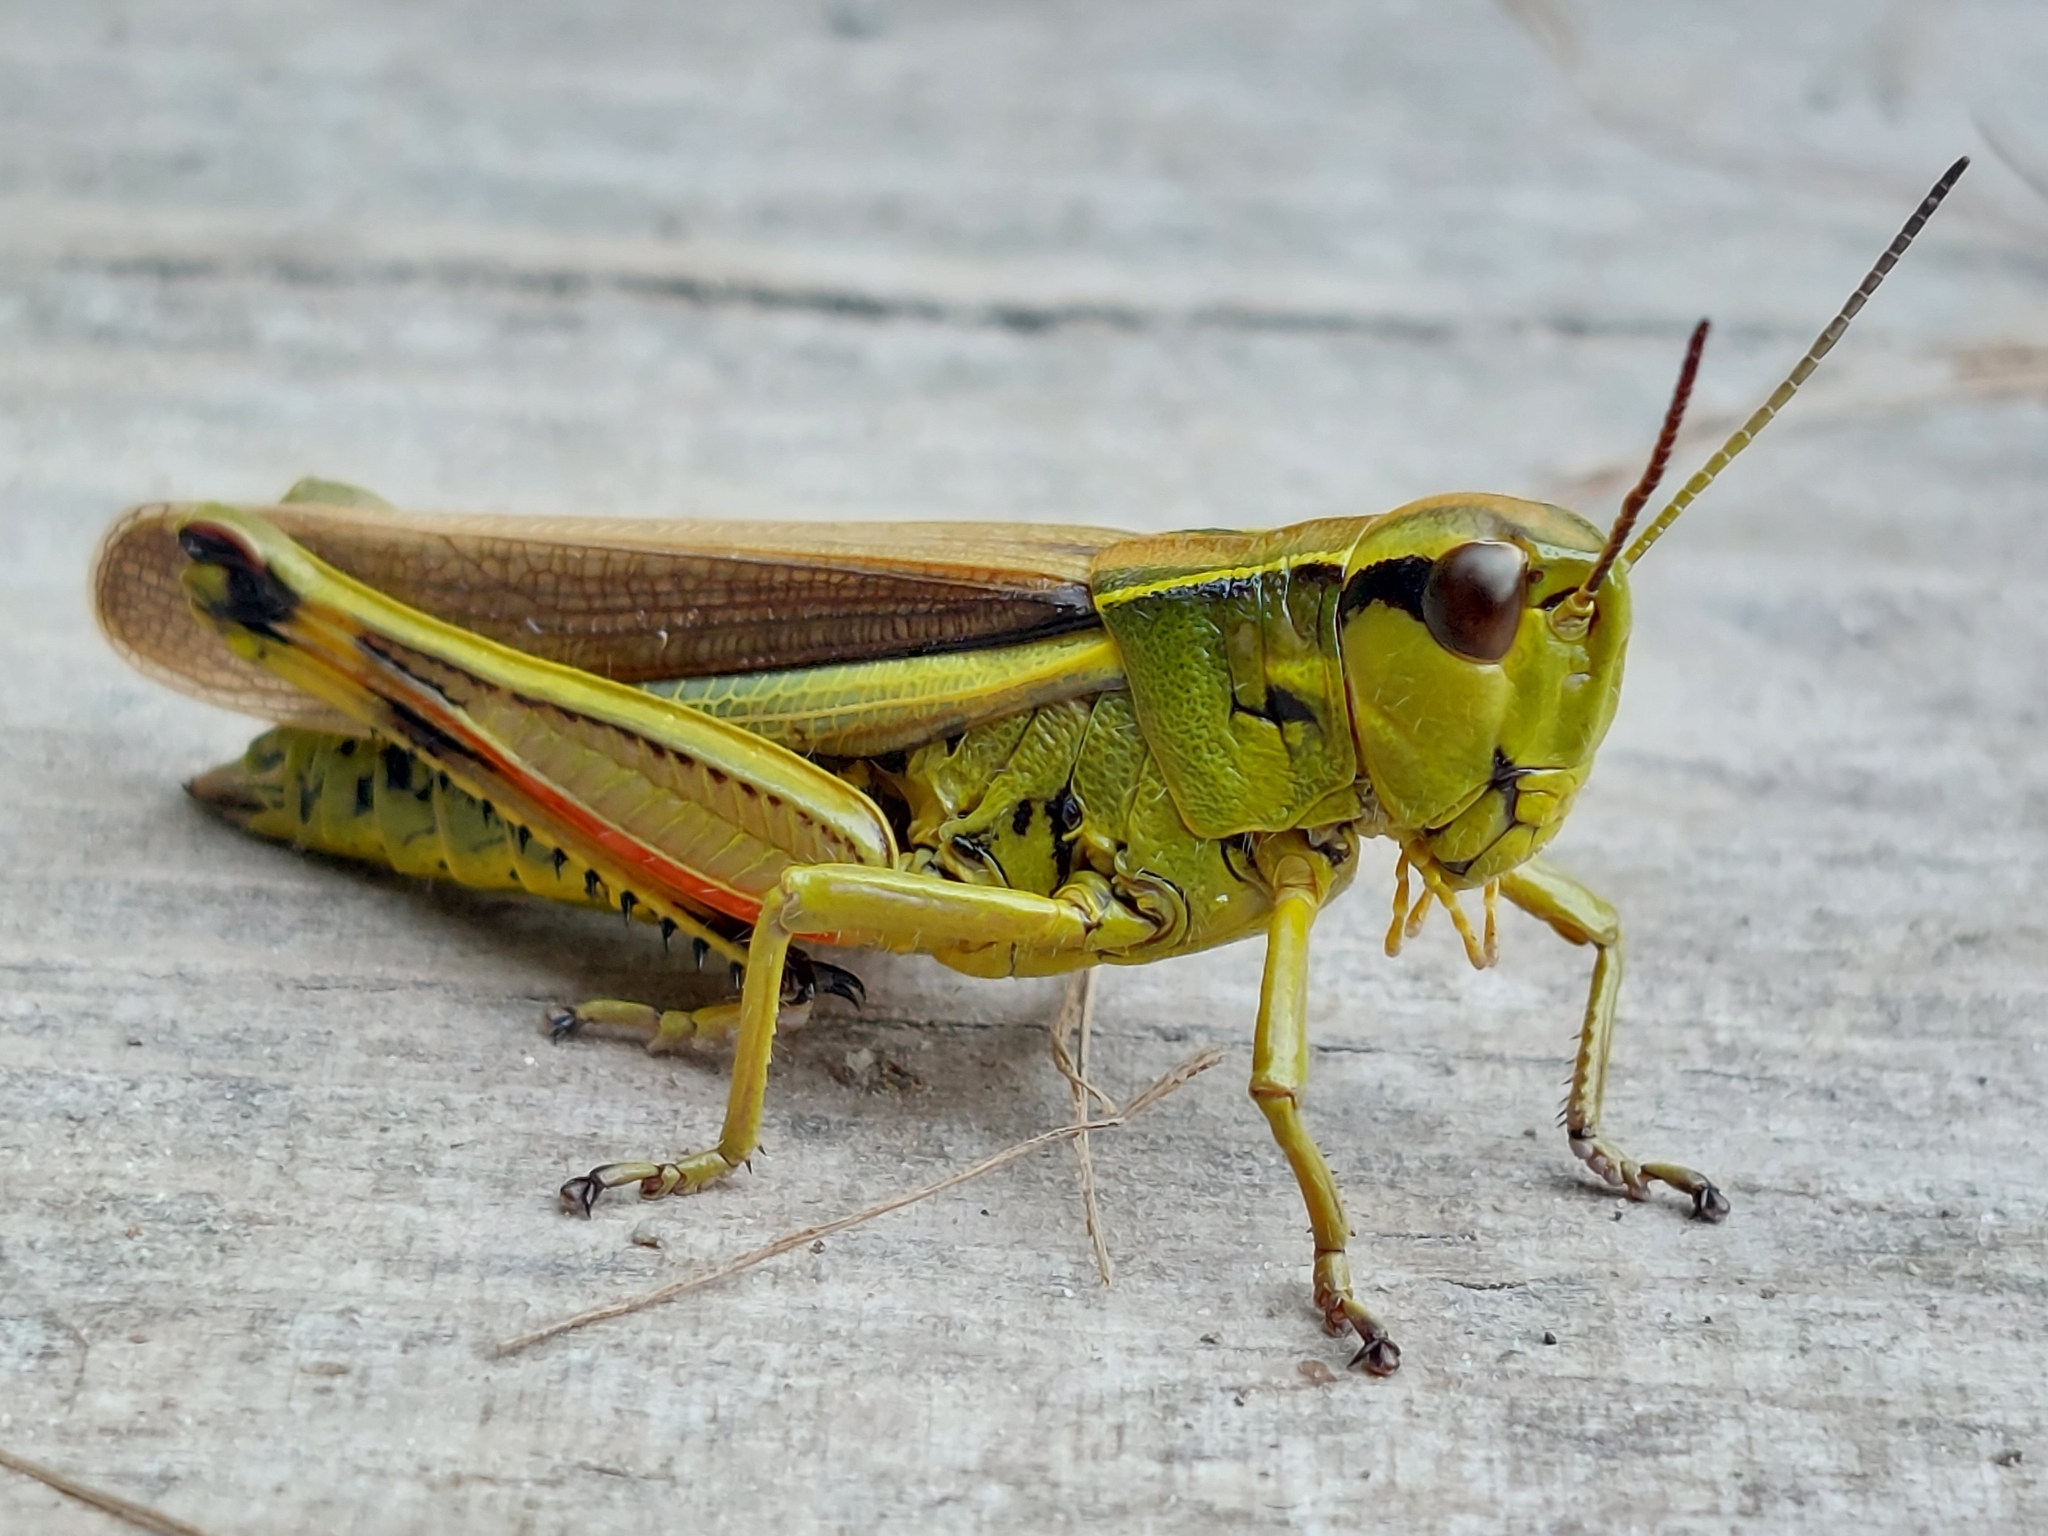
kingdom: Animalia
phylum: Arthropoda
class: Insecta
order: Orthoptera
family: Acrididae
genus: Stethophyma
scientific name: Stethophyma grossum
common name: Large marsh grasshopper
